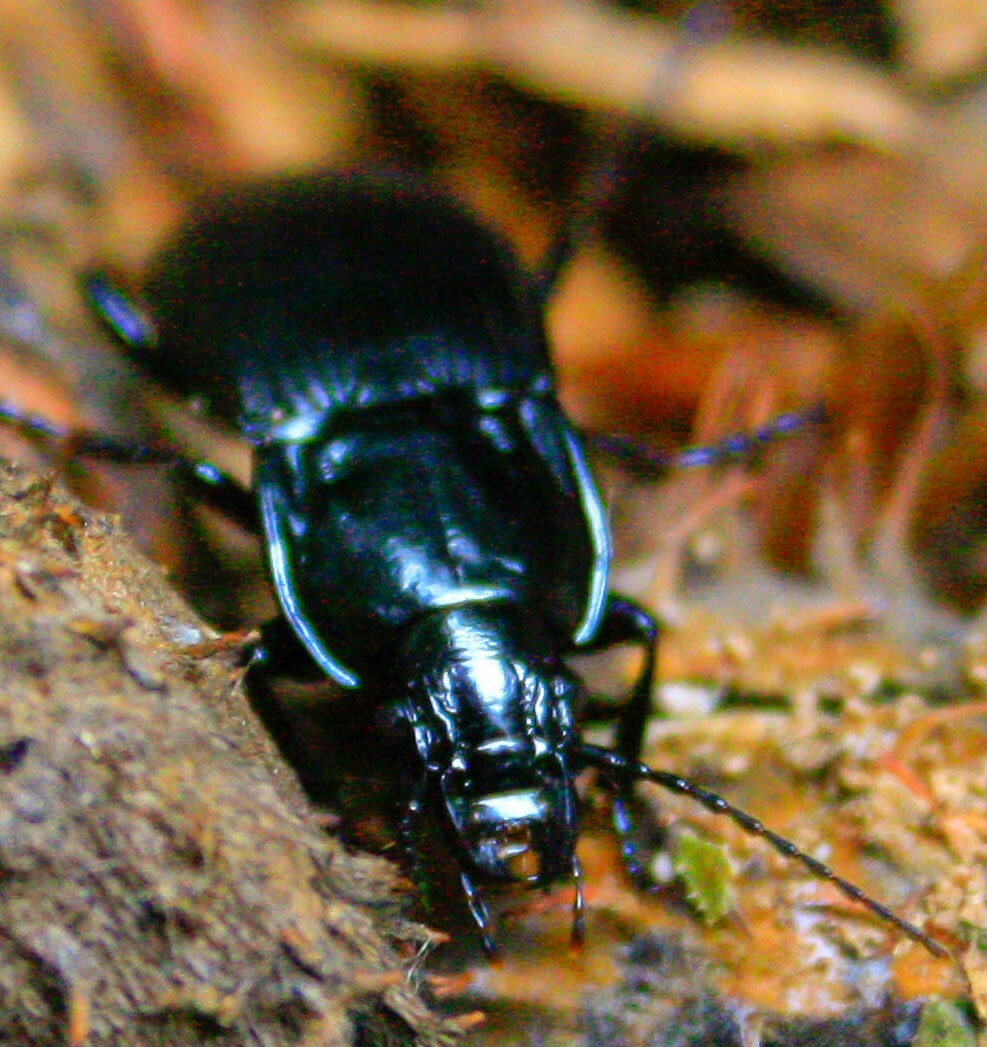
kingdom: Animalia
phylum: Arthropoda
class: Insecta
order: Coleoptera
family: Carabidae
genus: Abax
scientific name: Abax parallelepipedus
